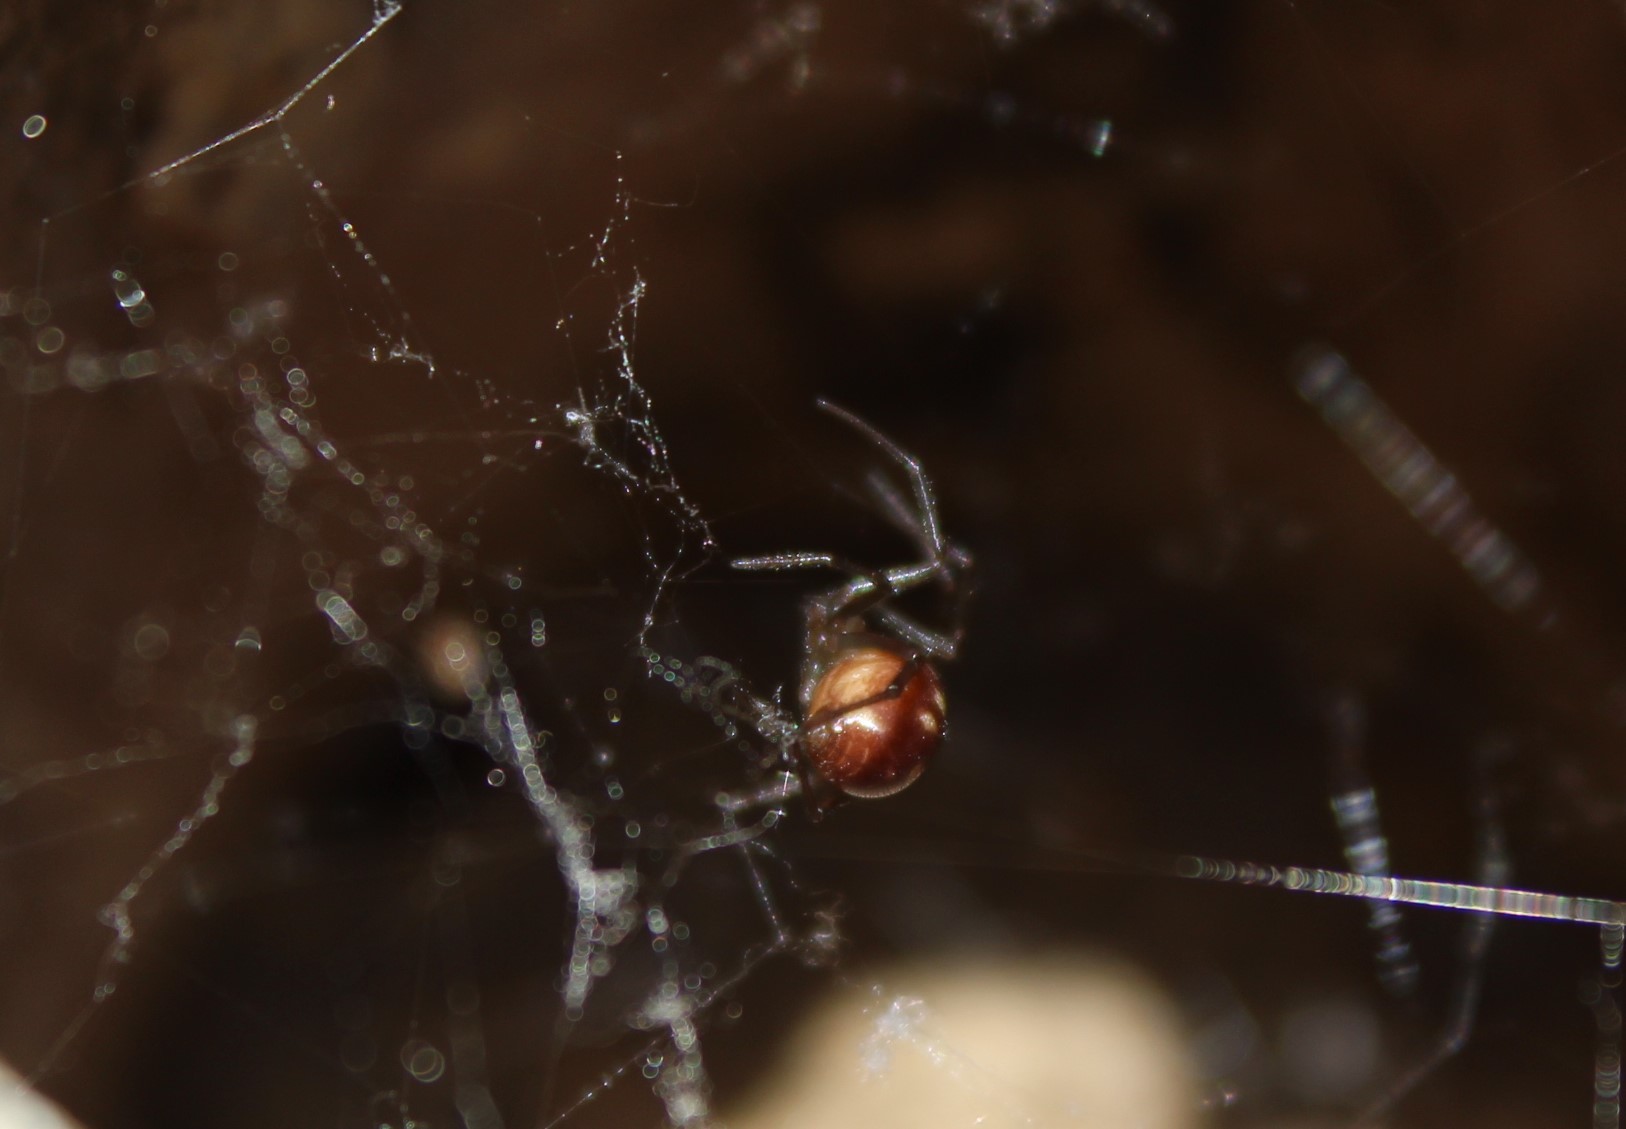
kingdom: Animalia
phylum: Arthropoda
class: Arachnida
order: Araneae
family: Theridiidae
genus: Steatoda
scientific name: Steatoda grossa
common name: False black widow
